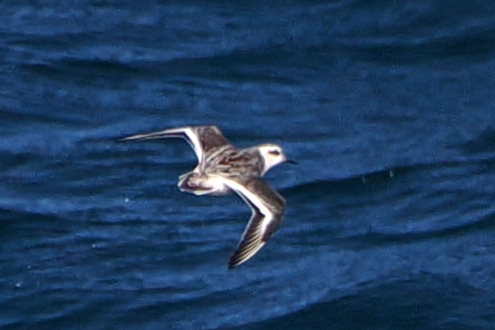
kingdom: Animalia
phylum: Chordata
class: Aves
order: Charadriiformes
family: Scolopacidae
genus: Phalaropus
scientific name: Phalaropus fulicarius
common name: Red phalarope
